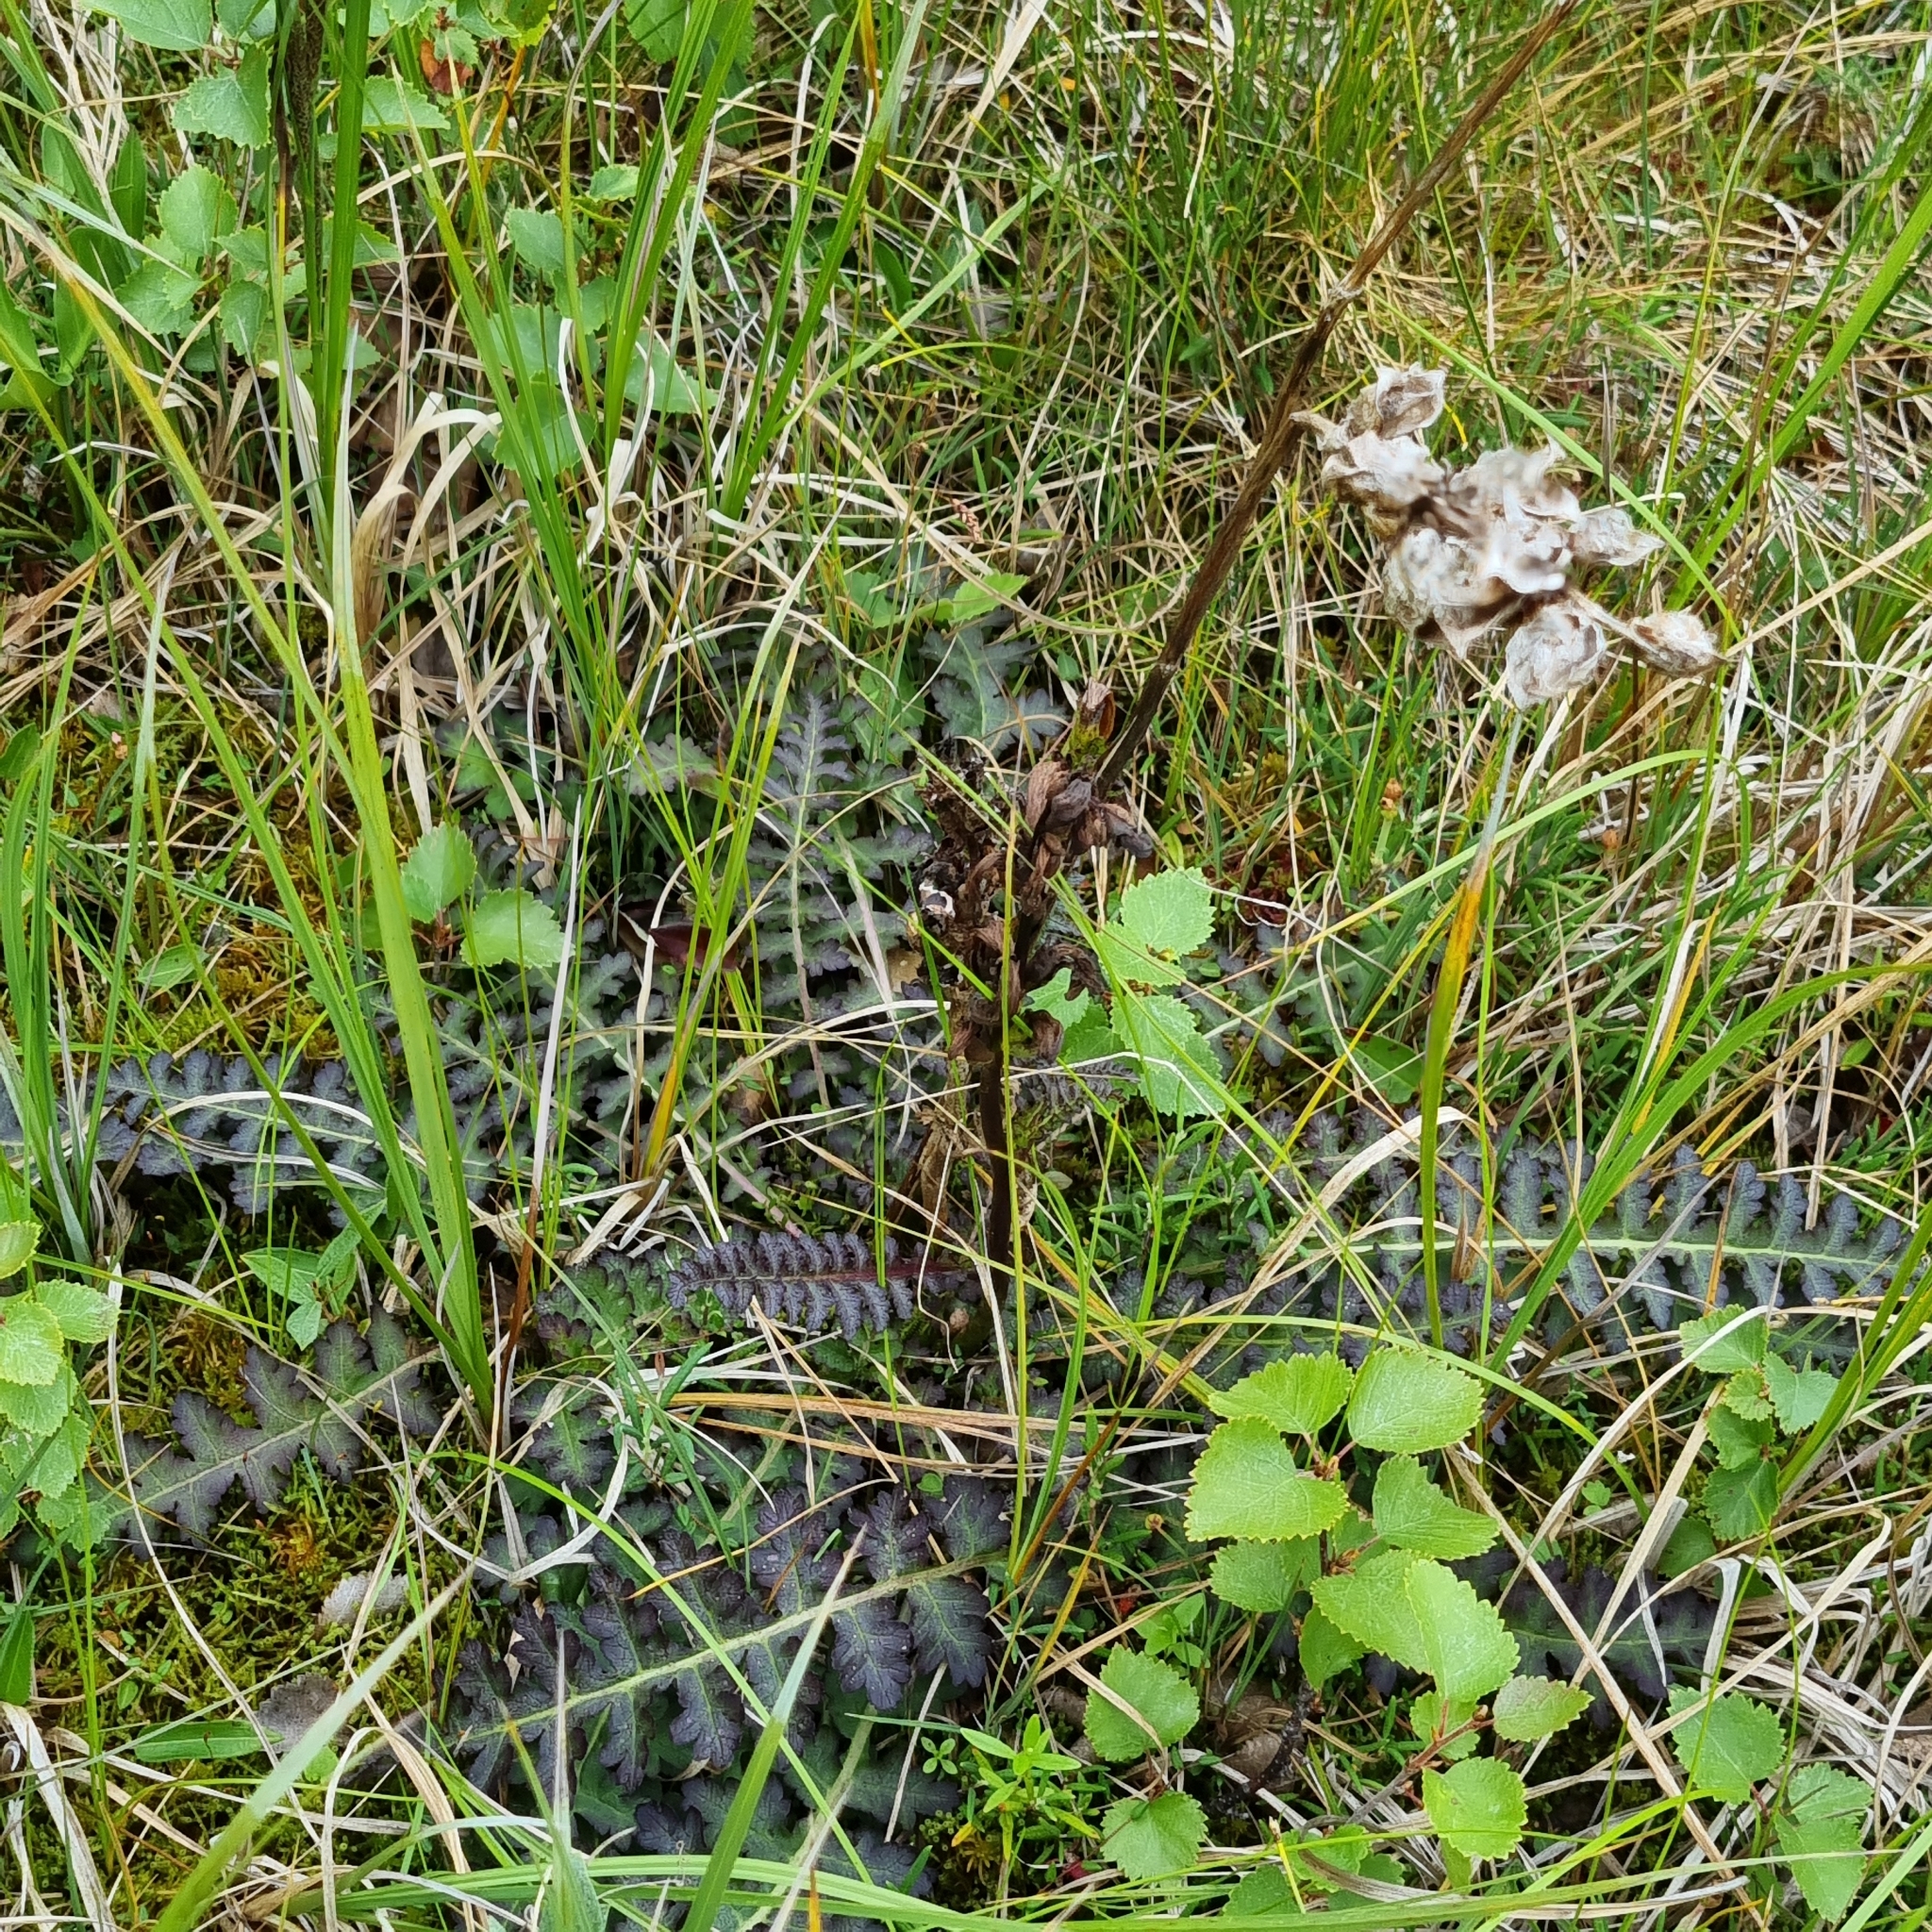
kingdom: Plantae
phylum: Tracheophyta
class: Magnoliopsida
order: Lamiales
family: Orobanchaceae
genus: Pedicularis
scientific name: Pedicularis sceptrum-carolinum
